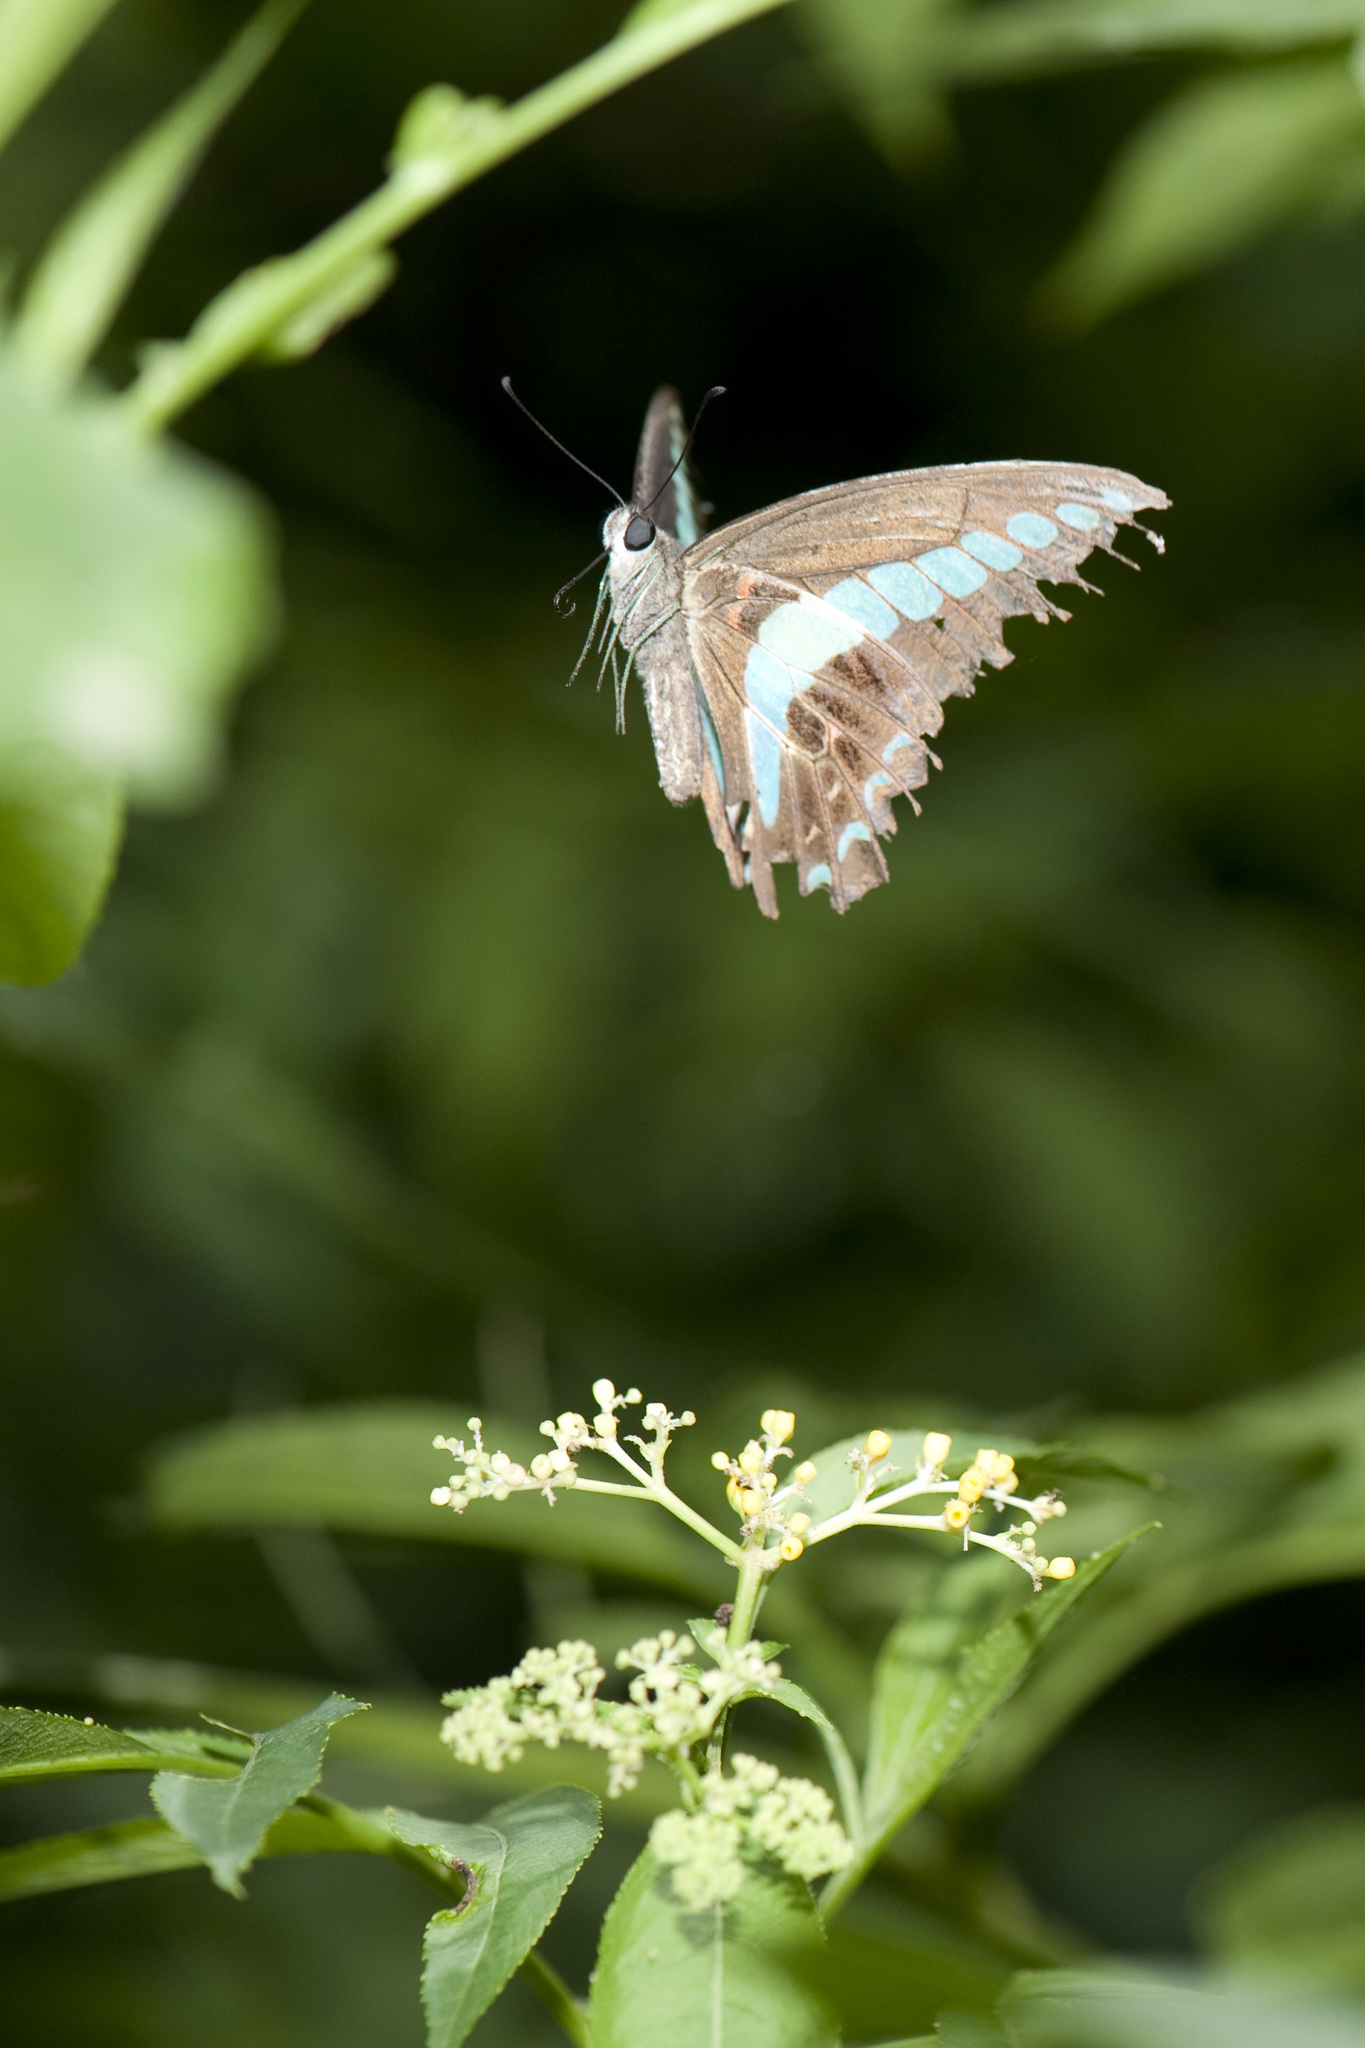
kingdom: Fungi
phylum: Ascomycota
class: Sordariomycetes
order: Microascales
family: Microascaceae
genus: Graphium
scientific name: Graphium sarpedon
